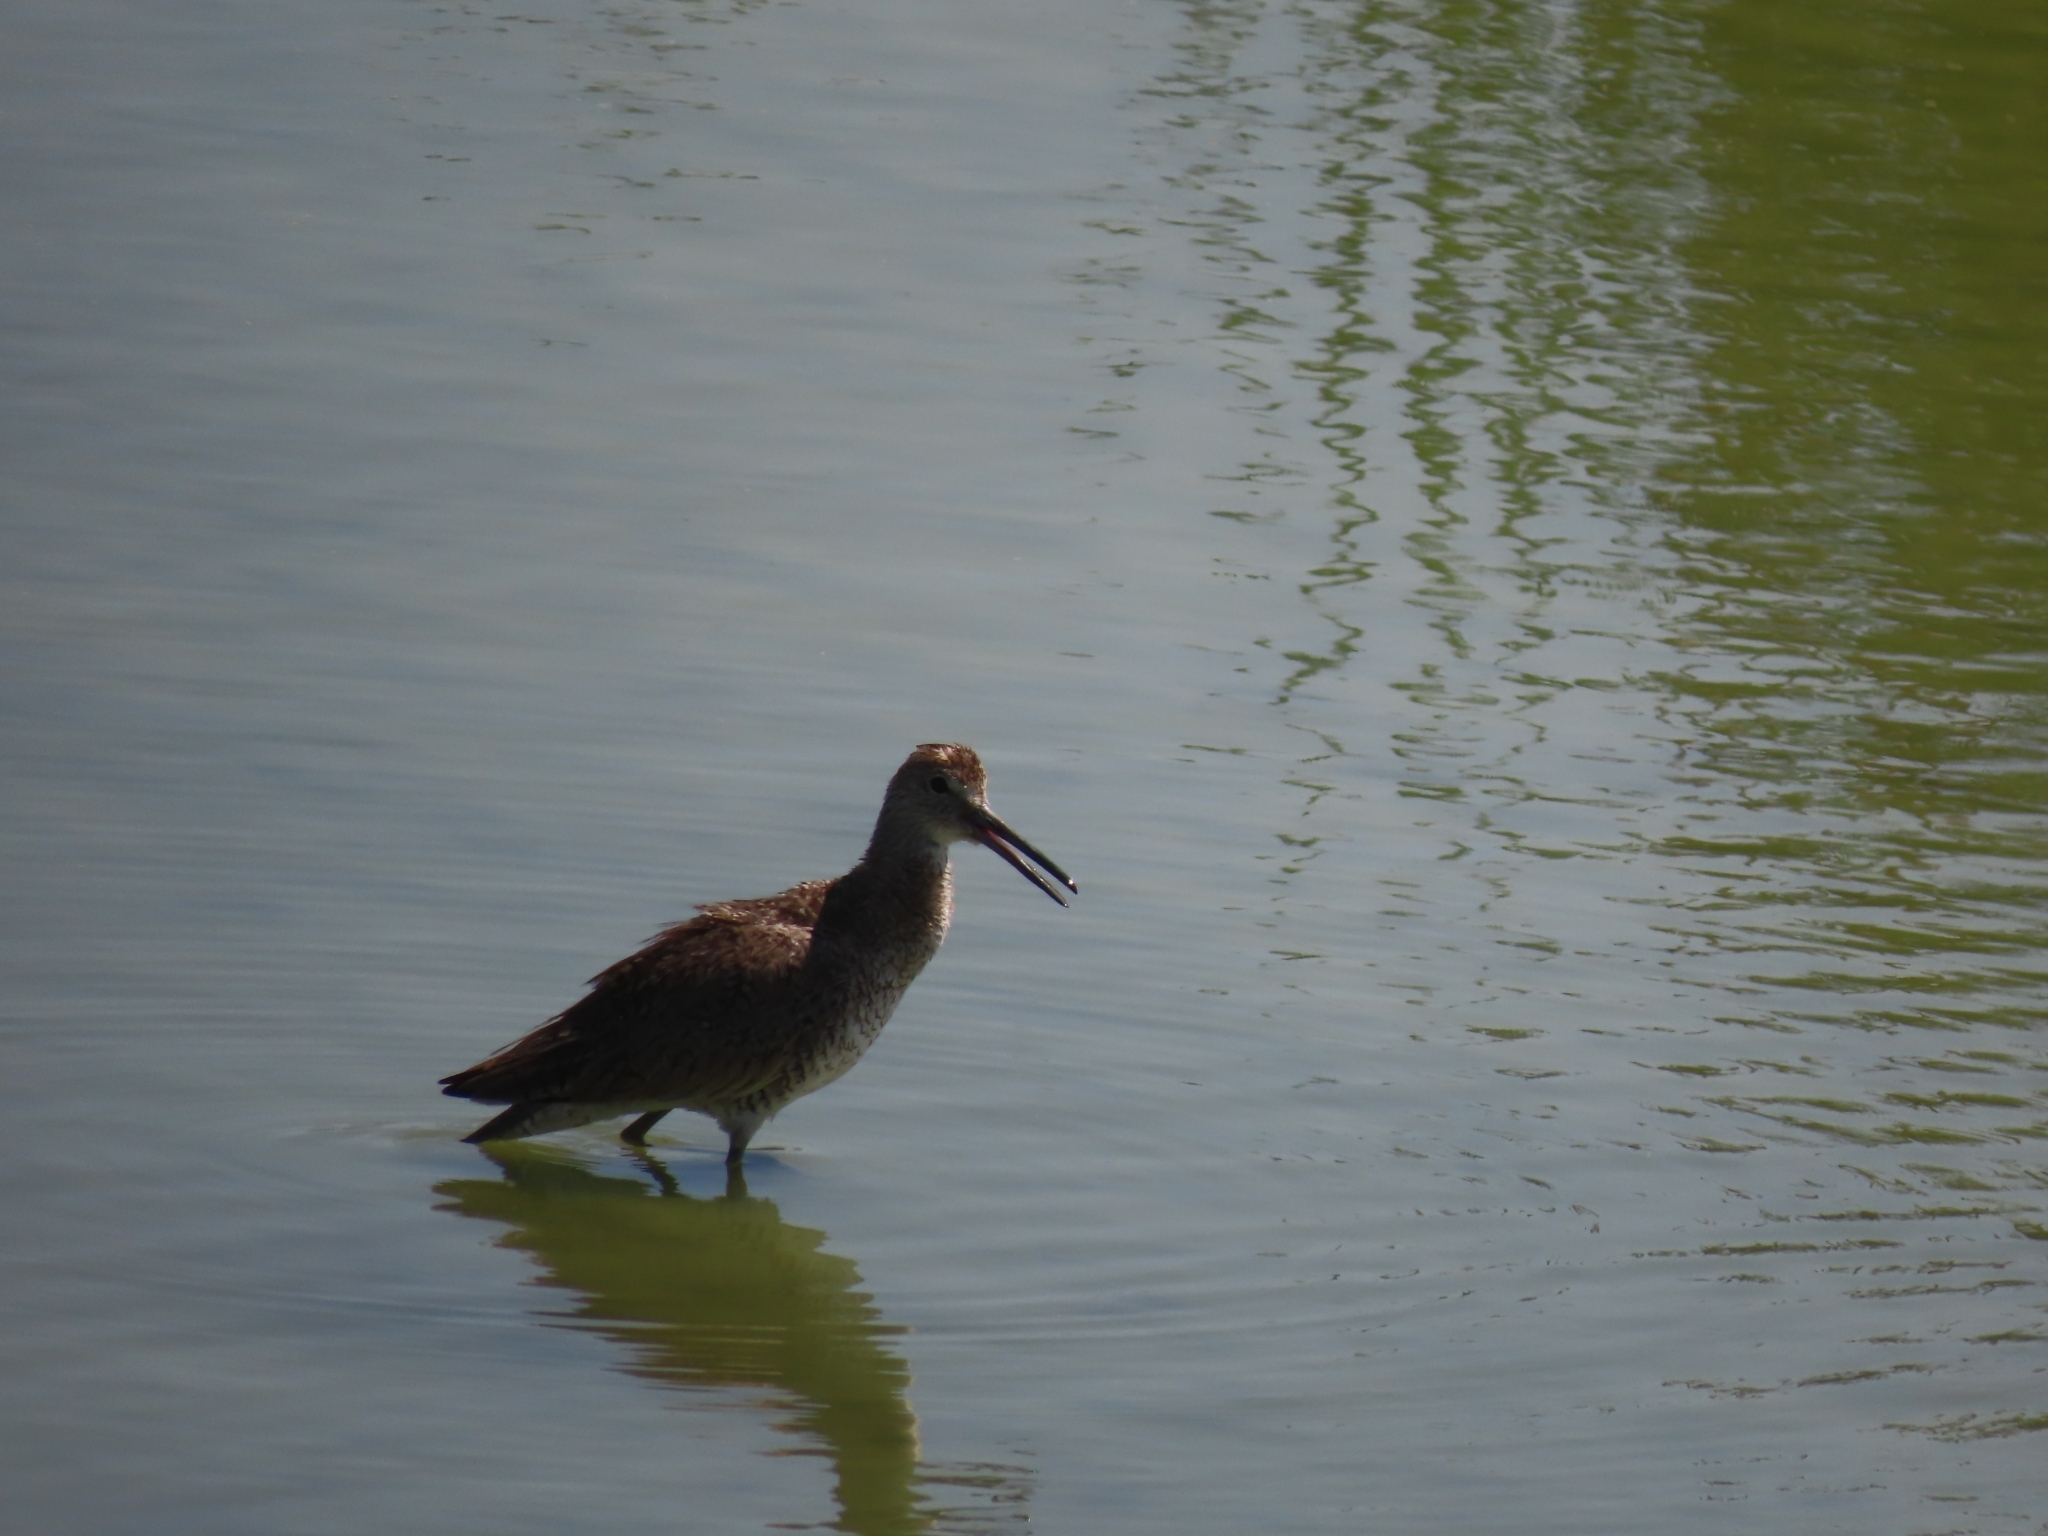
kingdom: Animalia
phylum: Chordata
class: Aves
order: Charadriiformes
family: Scolopacidae
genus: Tringa
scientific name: Tringa semipalmata
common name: Willet
